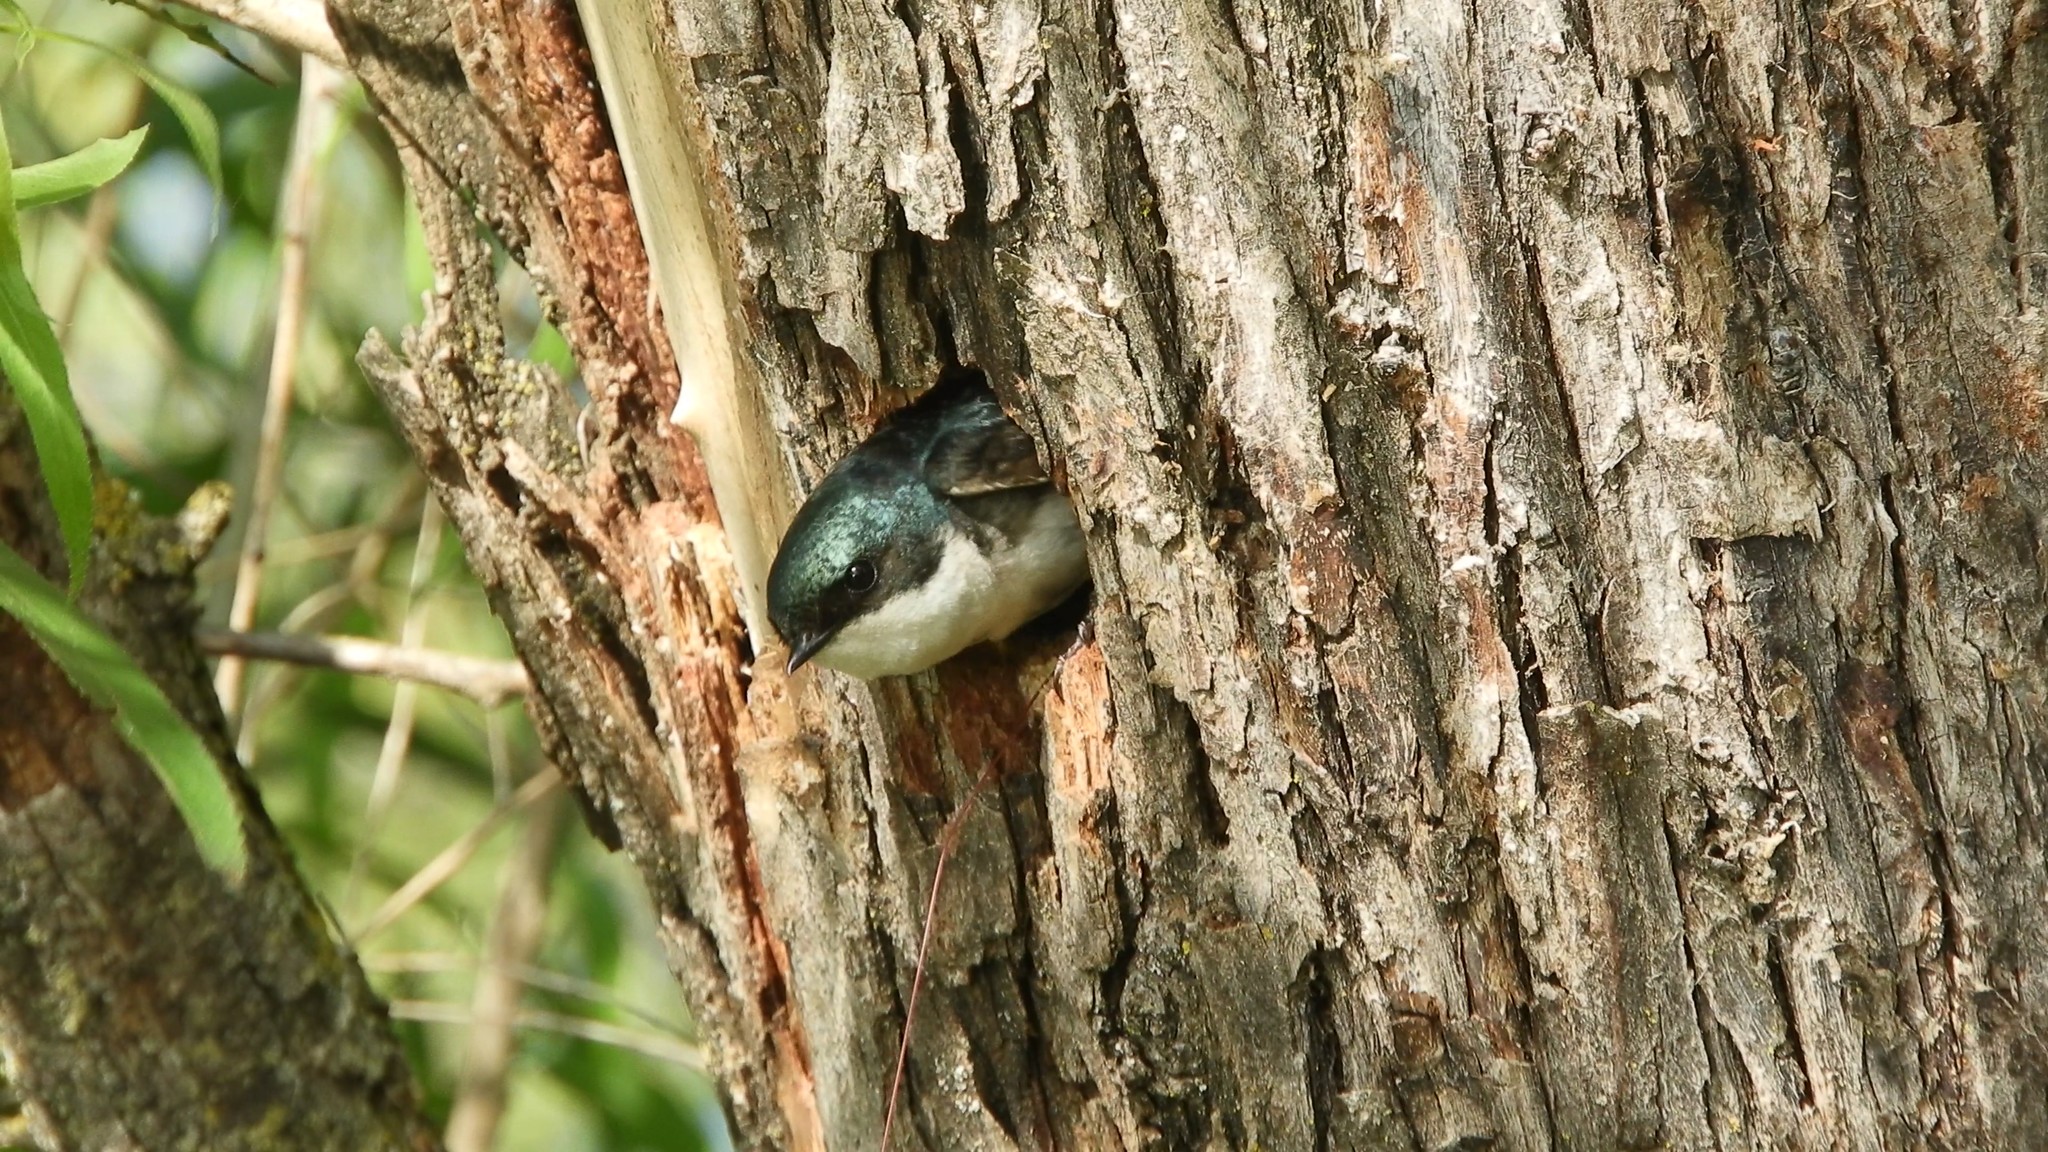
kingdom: Animalia
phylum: Chordata
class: Aves
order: Passeriformes
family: Hirundinidae
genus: Tachycineta
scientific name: Tachycineta bicolor
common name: Tree swallow
